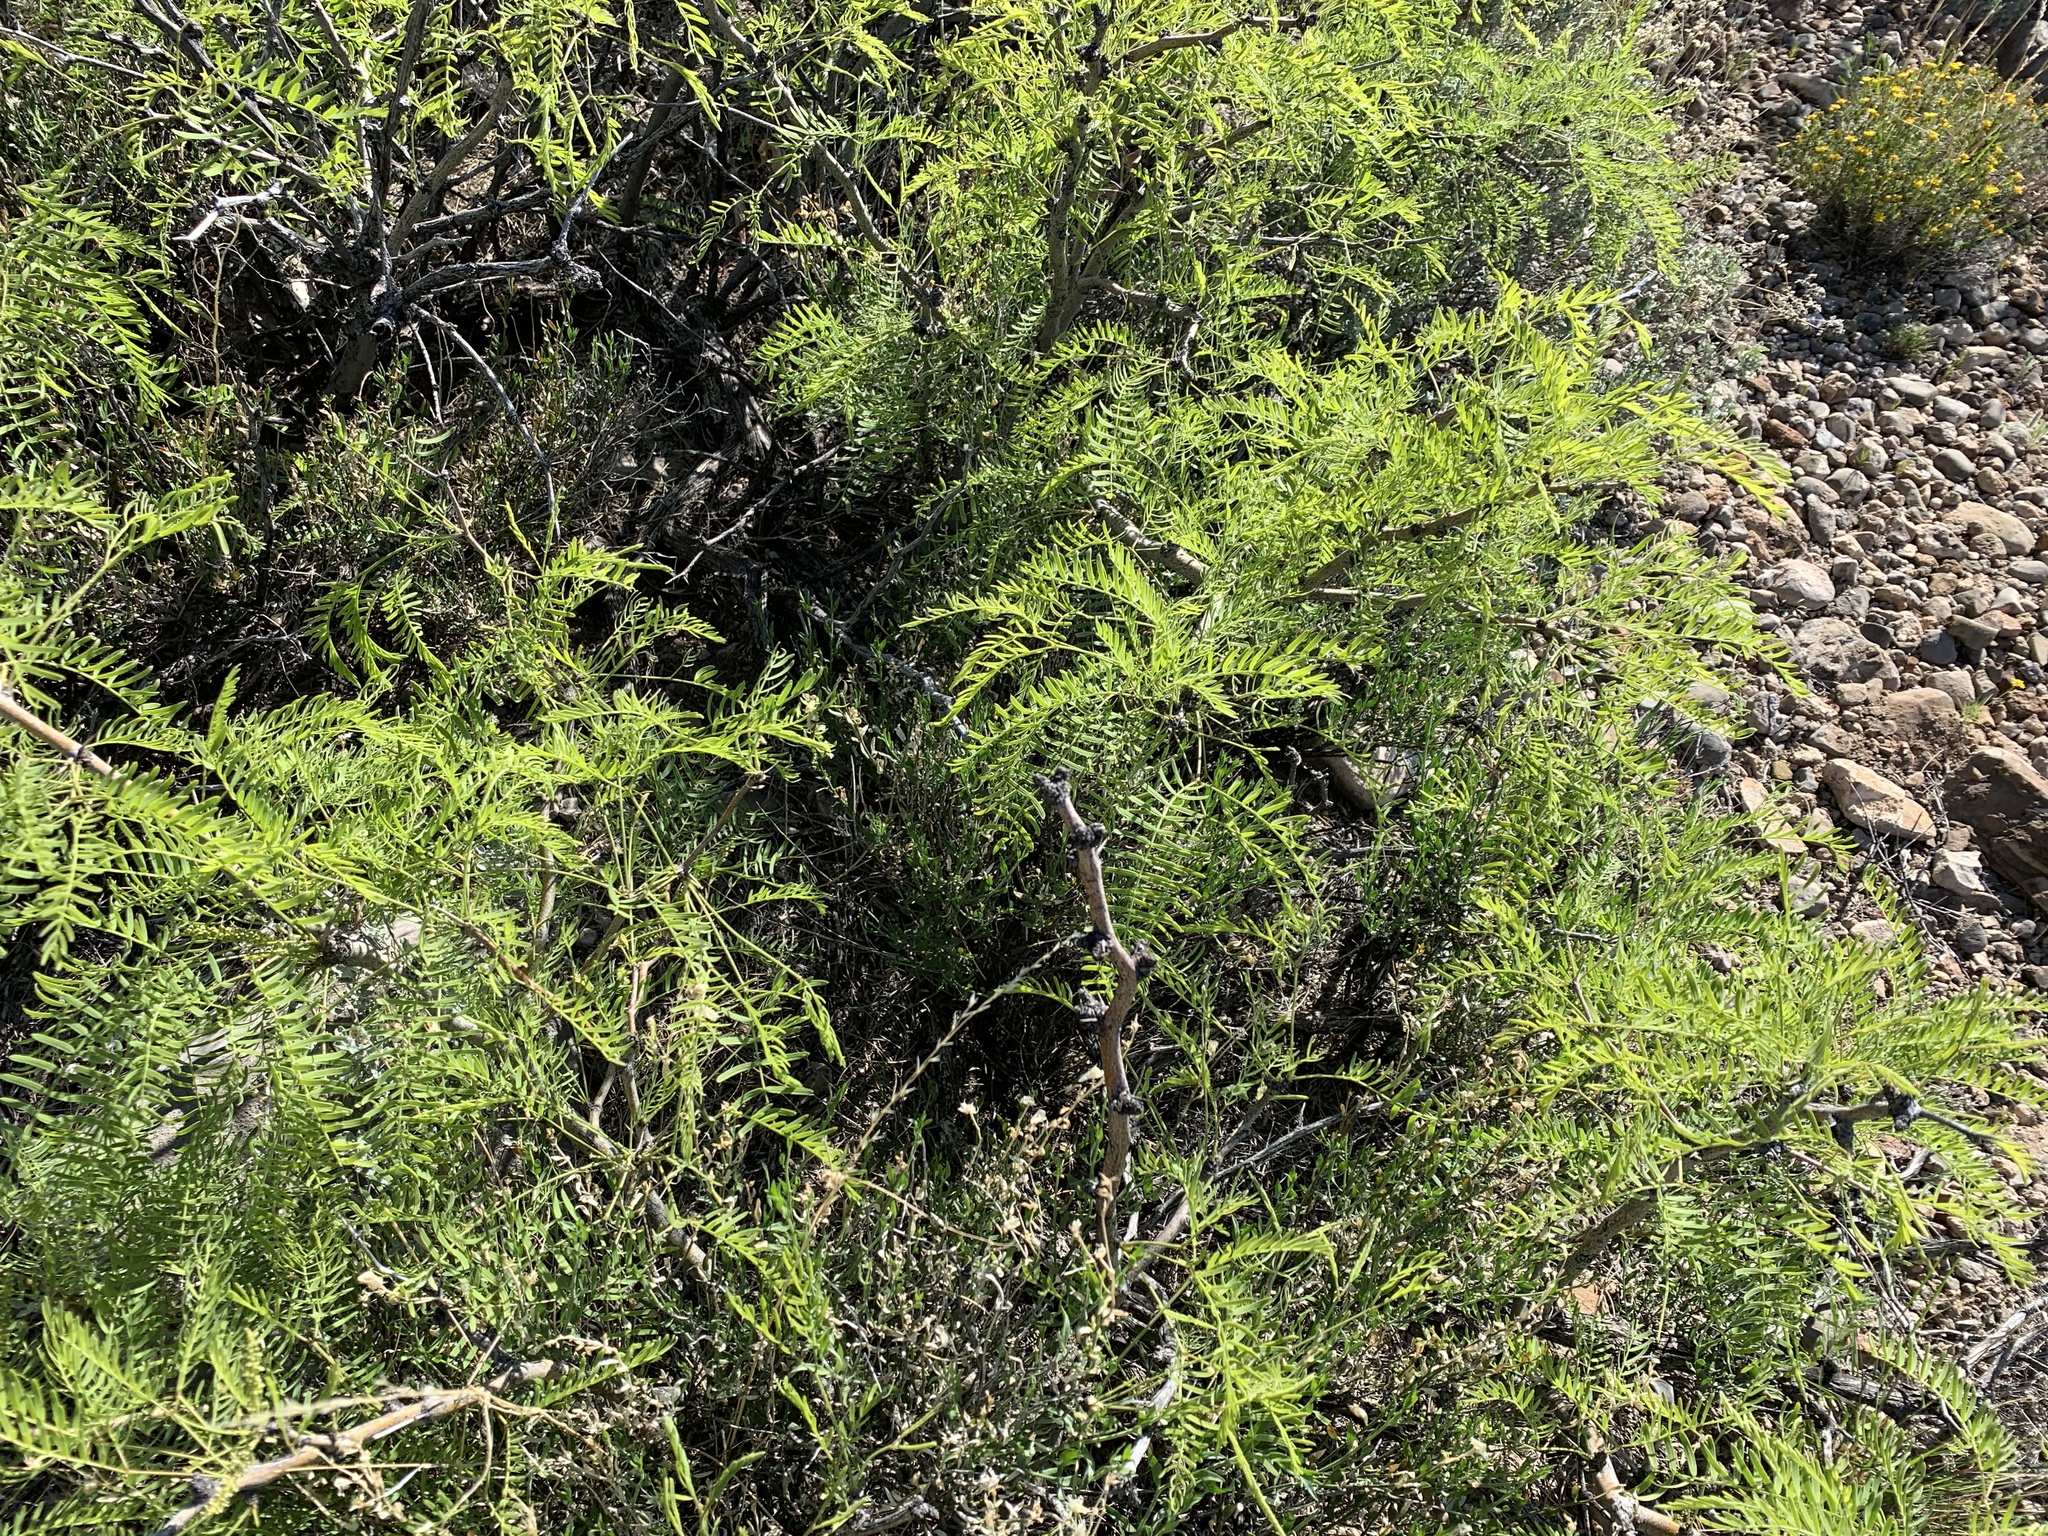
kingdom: Plantae
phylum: Tracheophyta
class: Magnoliopsida
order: Fabales
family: Fabaceae
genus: Prosopis
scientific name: Prosopis glandulosa
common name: Honey mesquite
